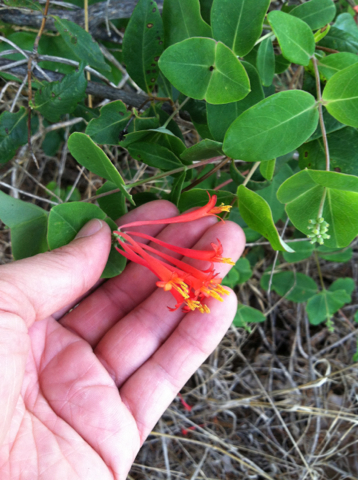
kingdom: Plantae
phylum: Tracheophyta
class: Magnoliopsida
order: Dipsacales
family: Caprifoliaceae
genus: Lonicera
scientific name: Lonicera sempervirens
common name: Coral honeysuckle
